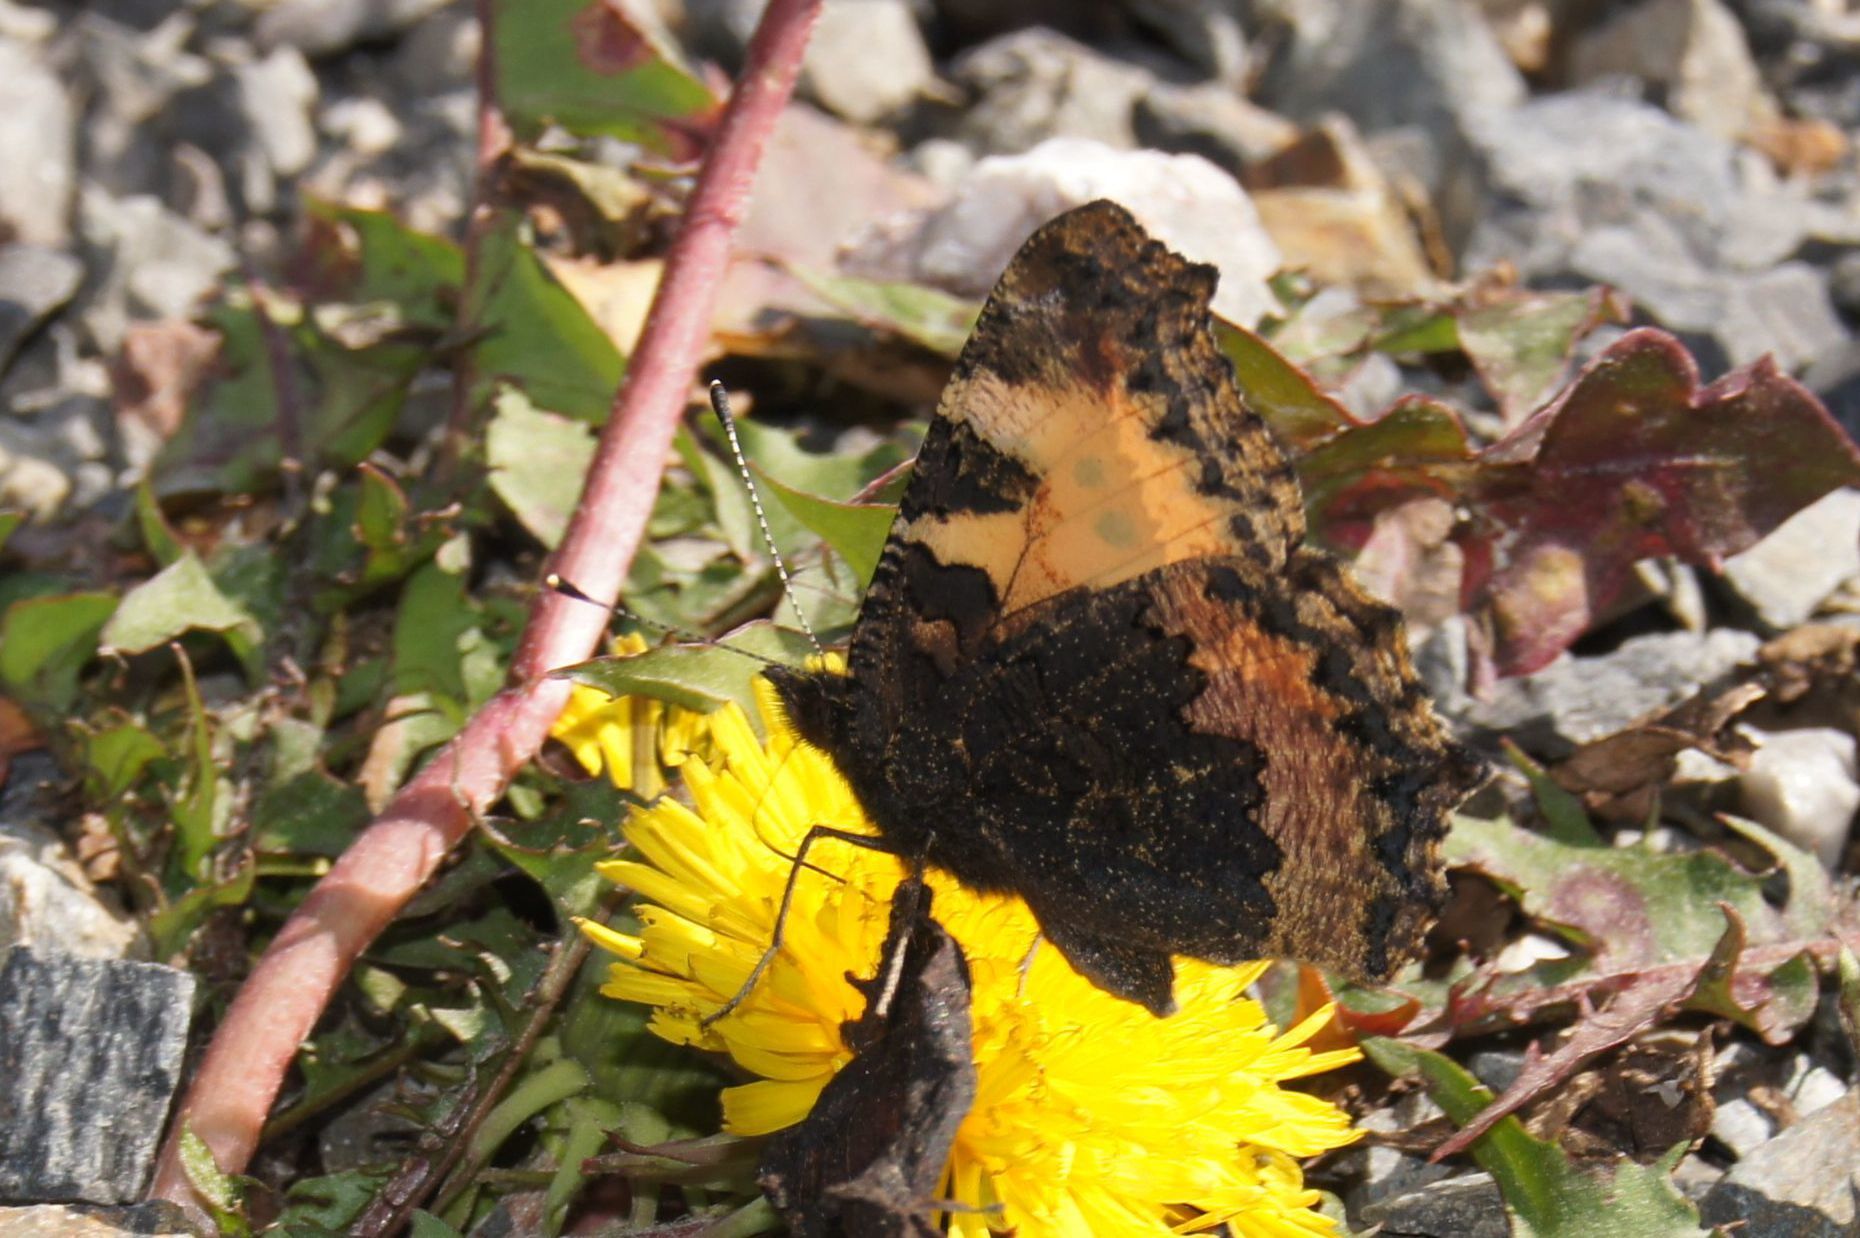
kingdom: Animalia
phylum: Arthropoda
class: Insecta
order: Lepidoptera
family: Nymphalidae
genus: Aglais
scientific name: Aglais urticae
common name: Small tortoiseshell
